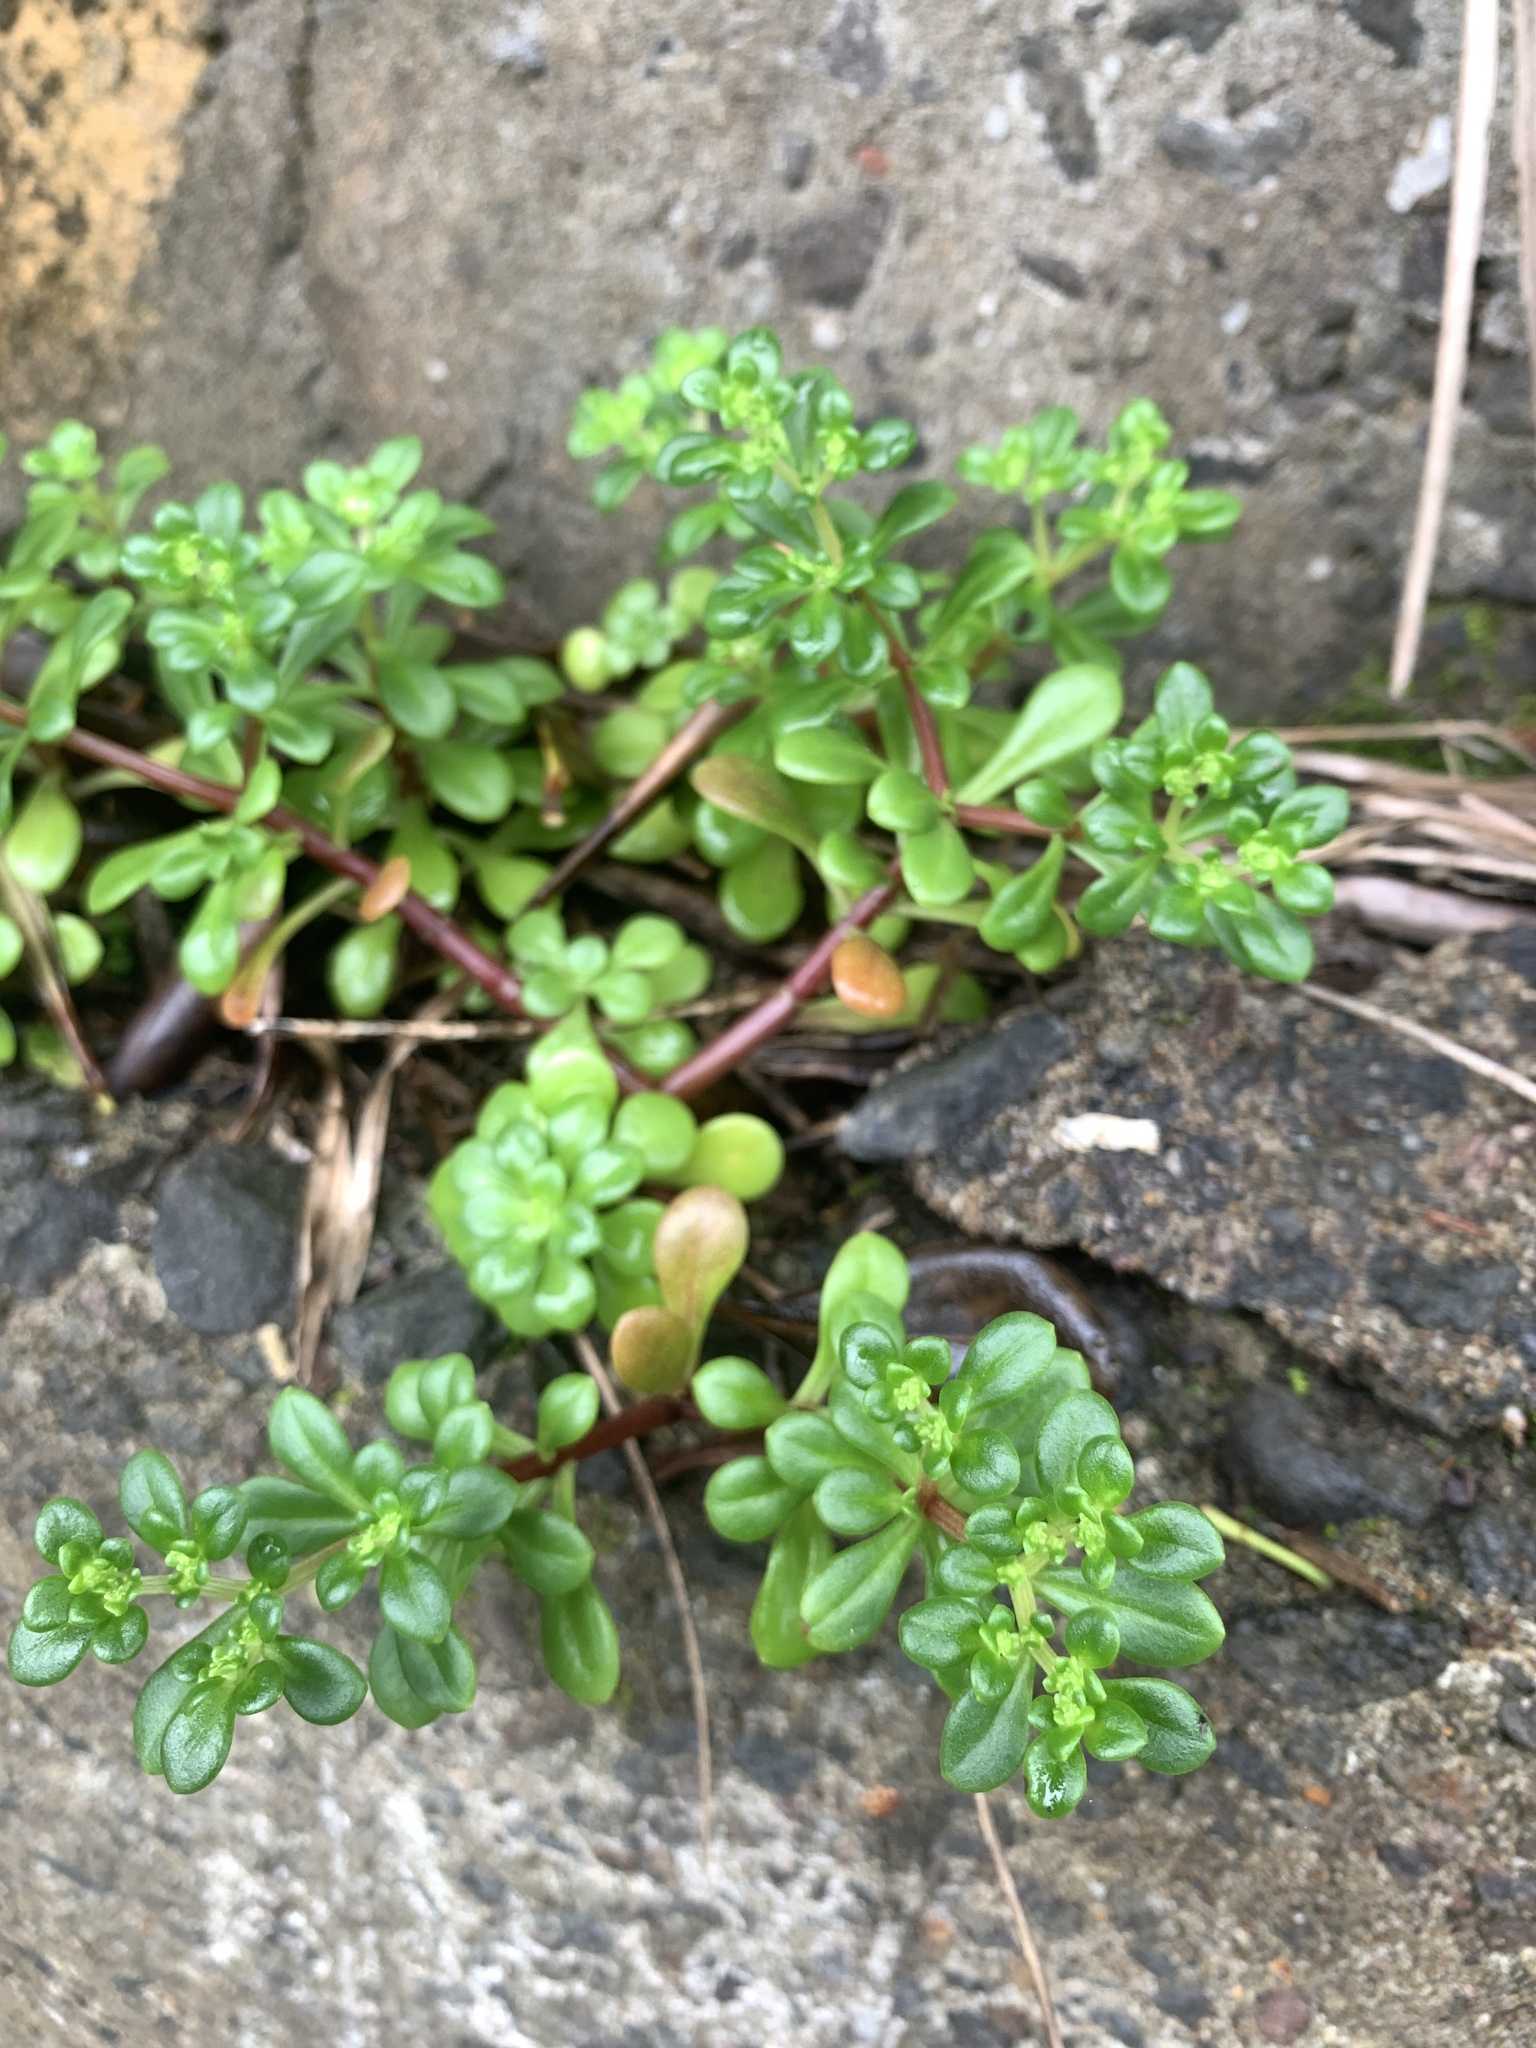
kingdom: Plantae
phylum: Tracheophyta
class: Magnoliopsida
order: Saxifragales
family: Crassulaceae
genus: Sedum
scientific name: Sedum formosanum
